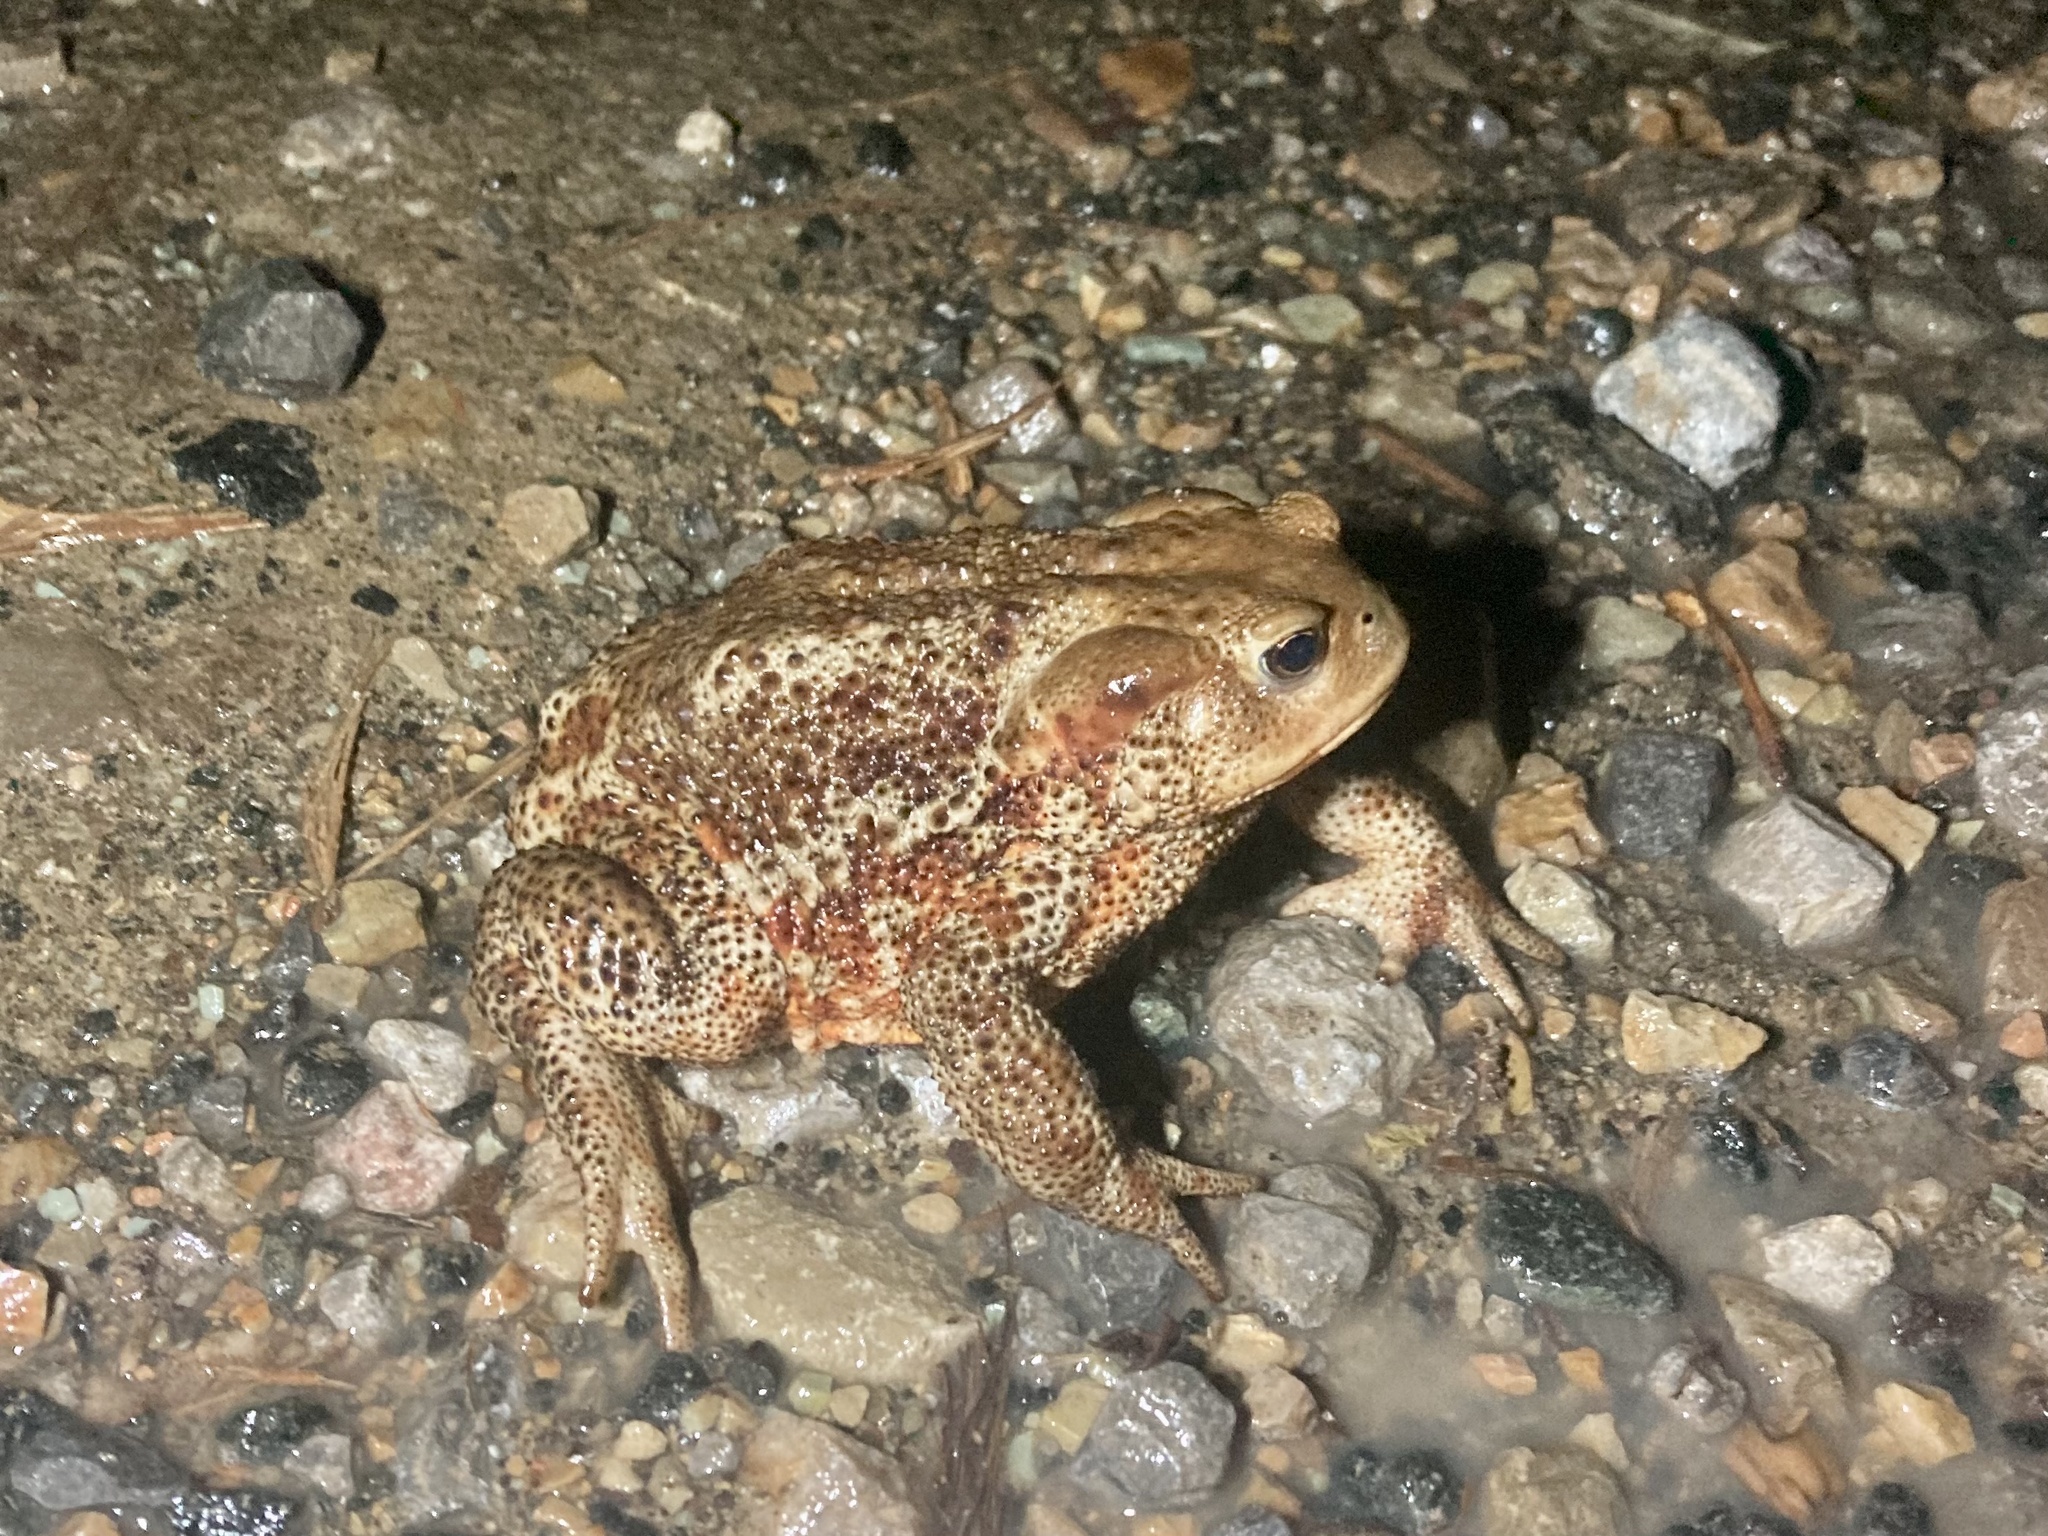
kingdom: Animalia
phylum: Chordata
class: Amphibia
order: Anura
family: Bufonidae
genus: Bufo
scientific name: Bufo bufo
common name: Common toad
